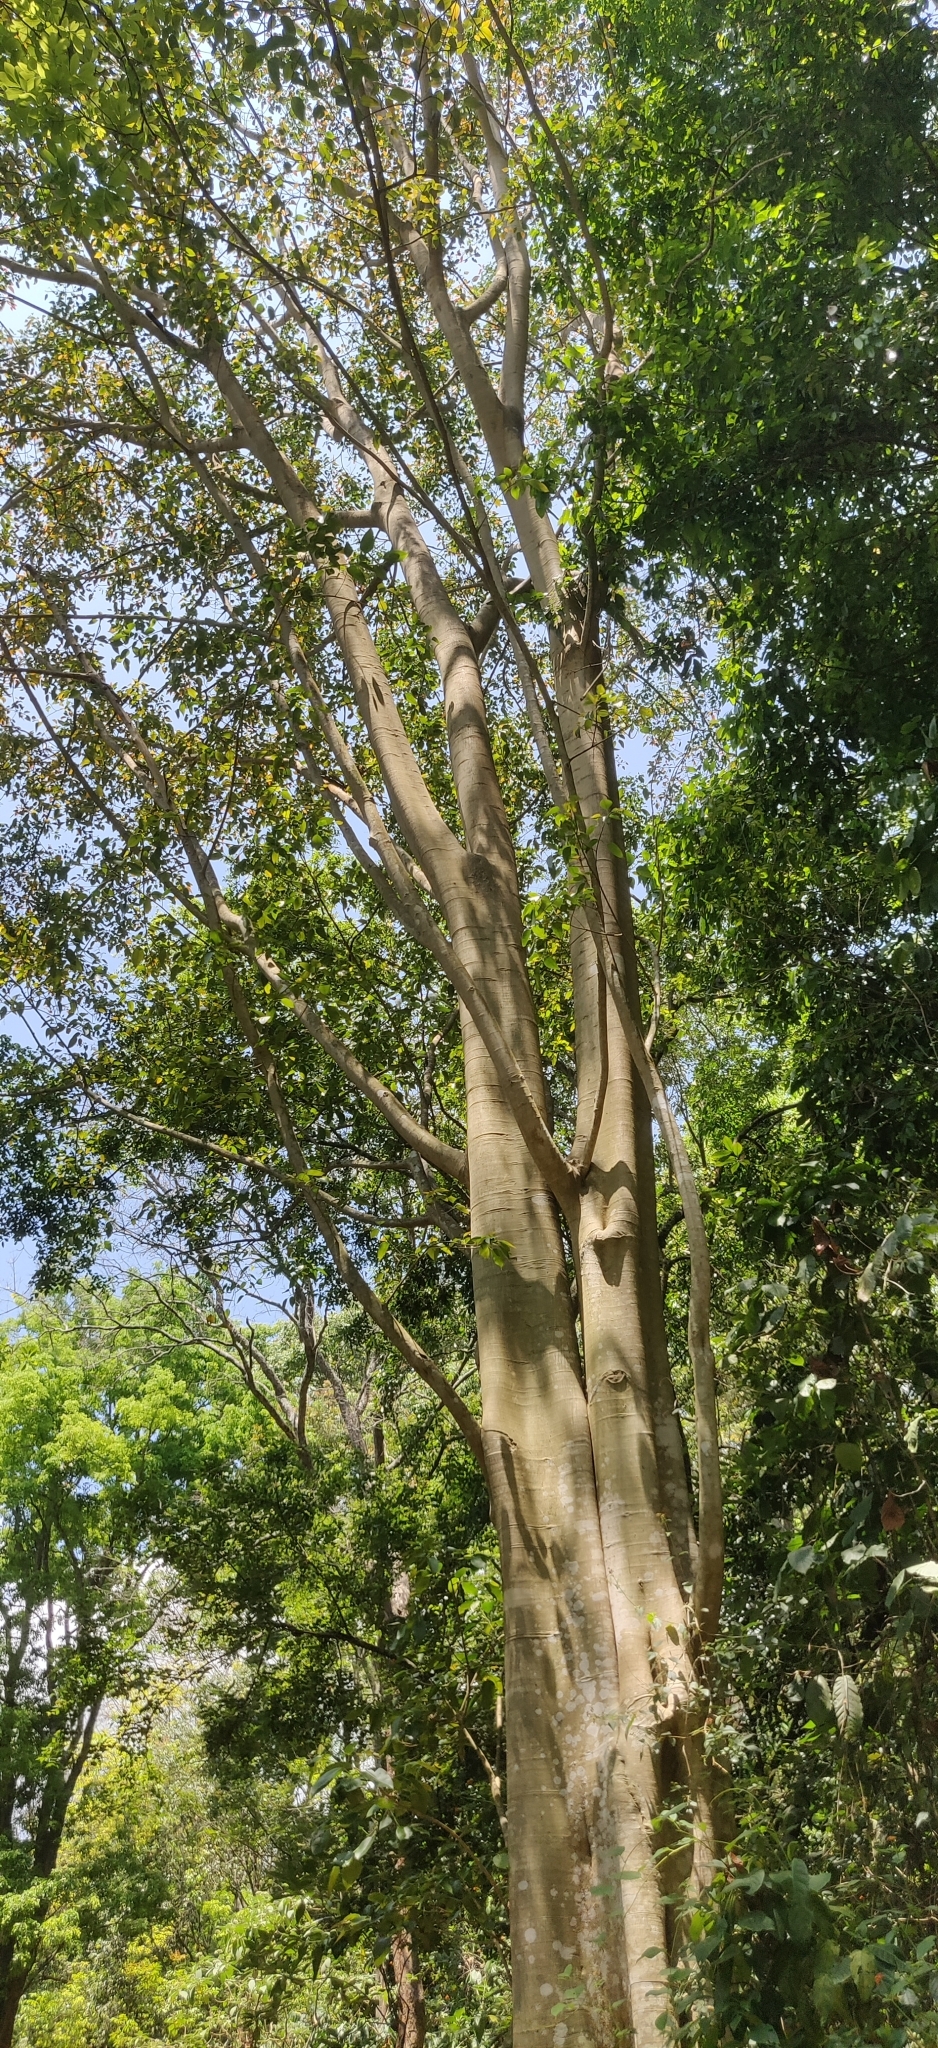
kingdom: Plantae
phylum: Tracheophyta
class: Magnoliopsida
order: Rosales
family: Moraceae
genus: Ficus
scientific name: Ficus amplissima
